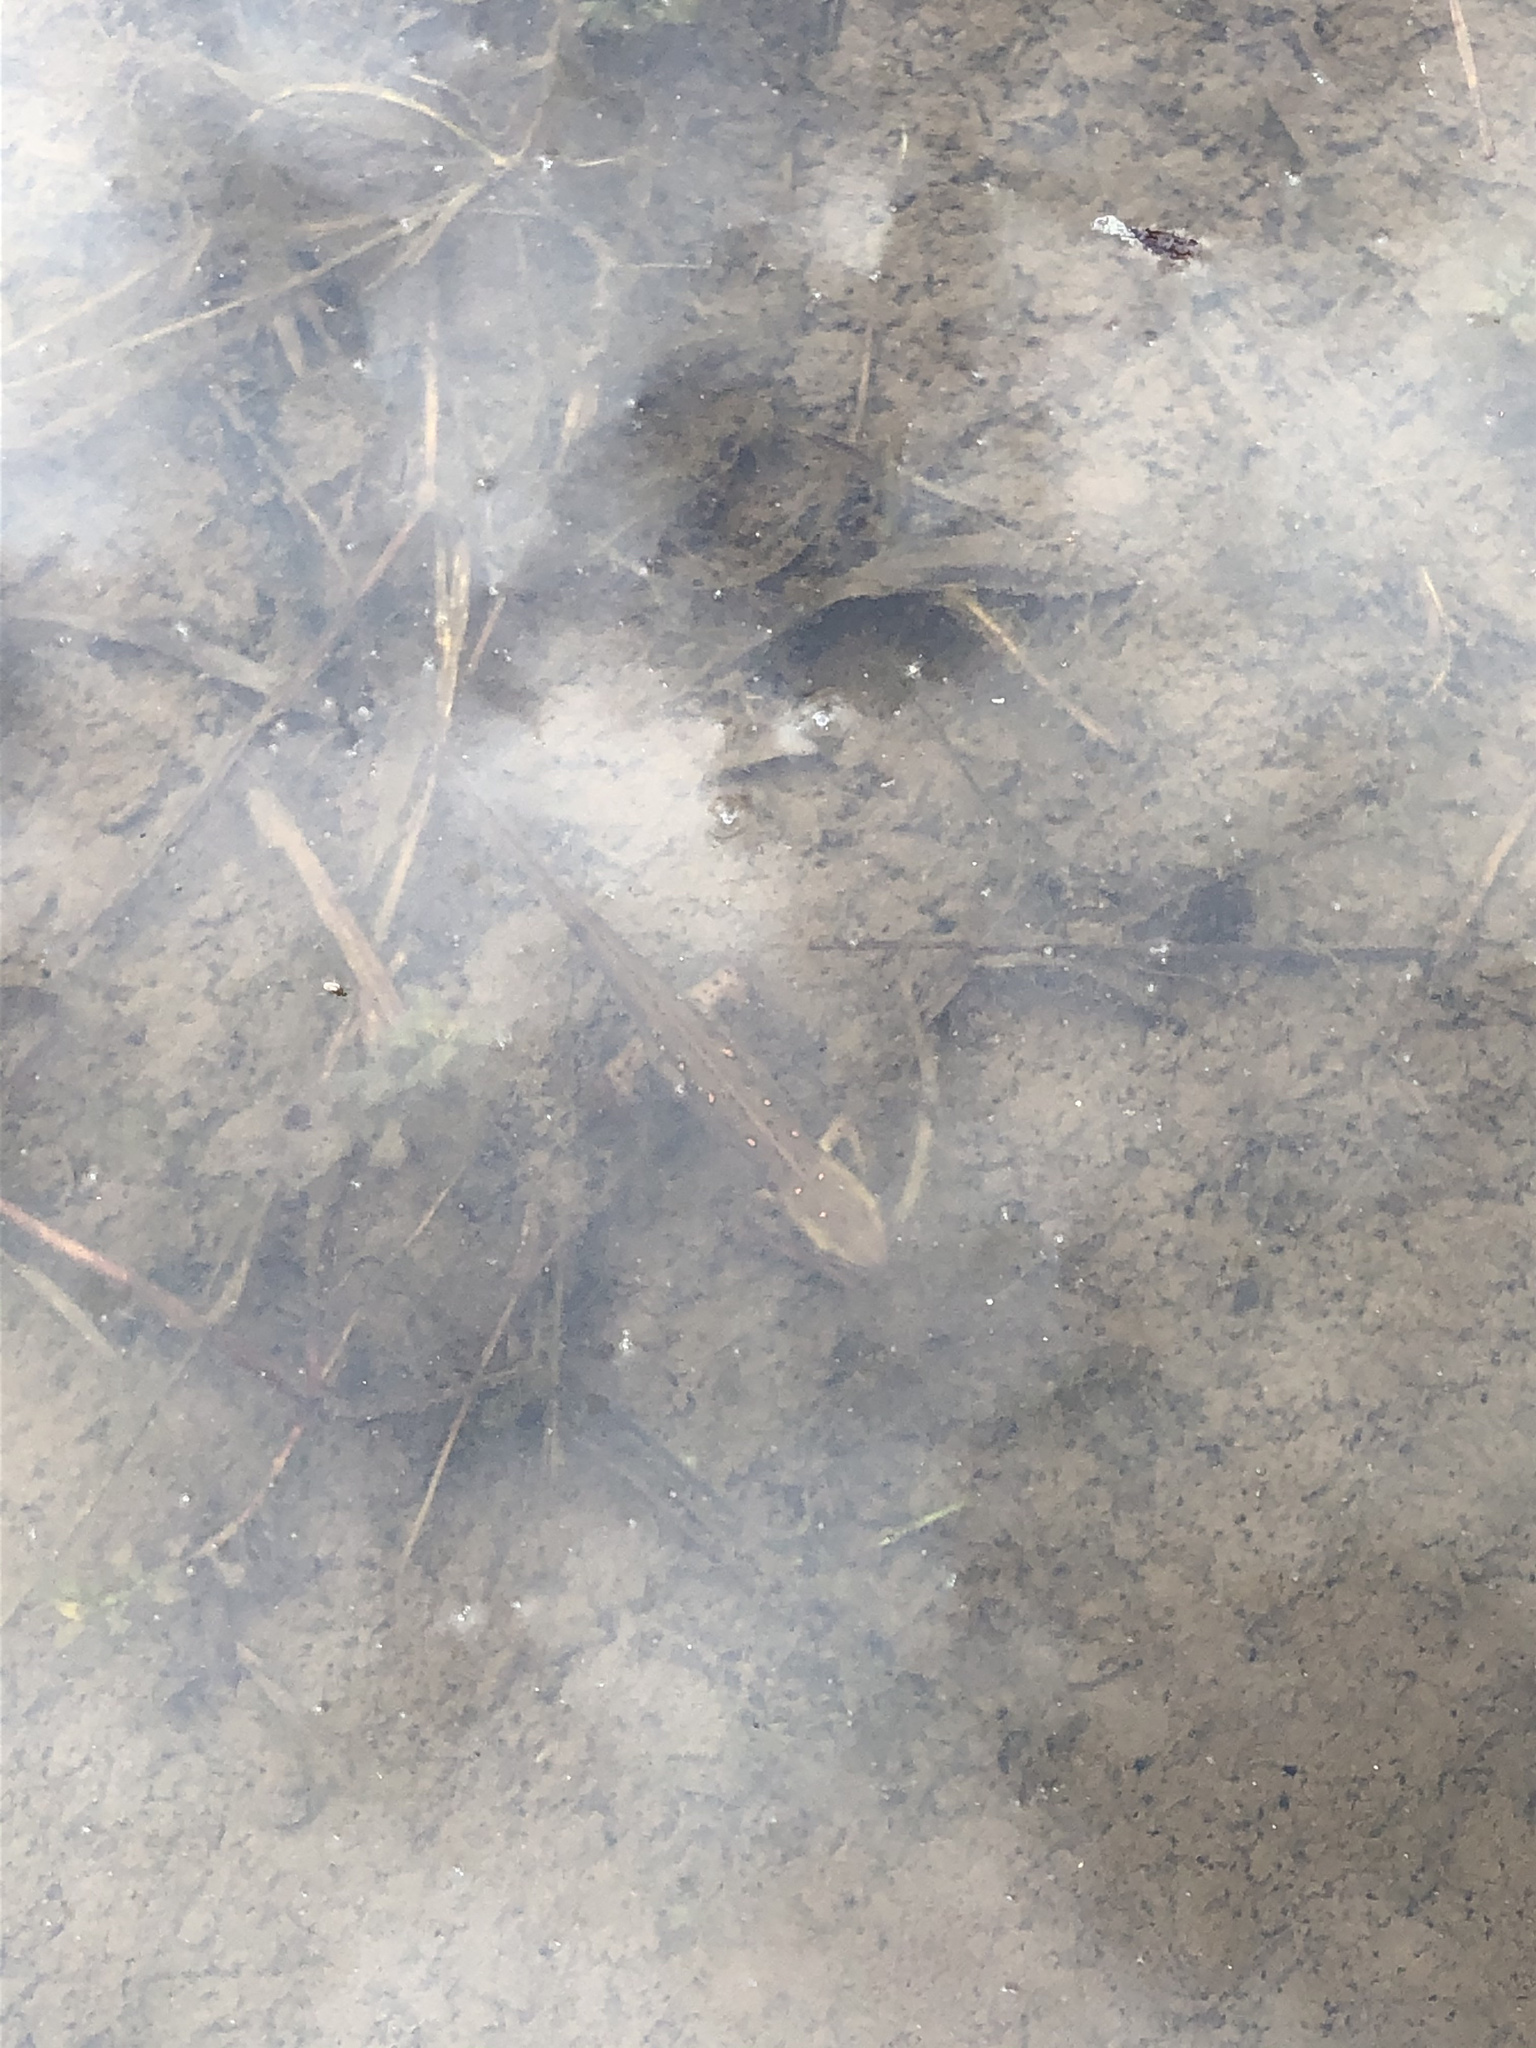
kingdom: Animalia
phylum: Chordata
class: Amphibia
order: Caudata
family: Salamandridae
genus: Notophthalmus
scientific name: Notophthalmus viridescens
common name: Eastern newt
